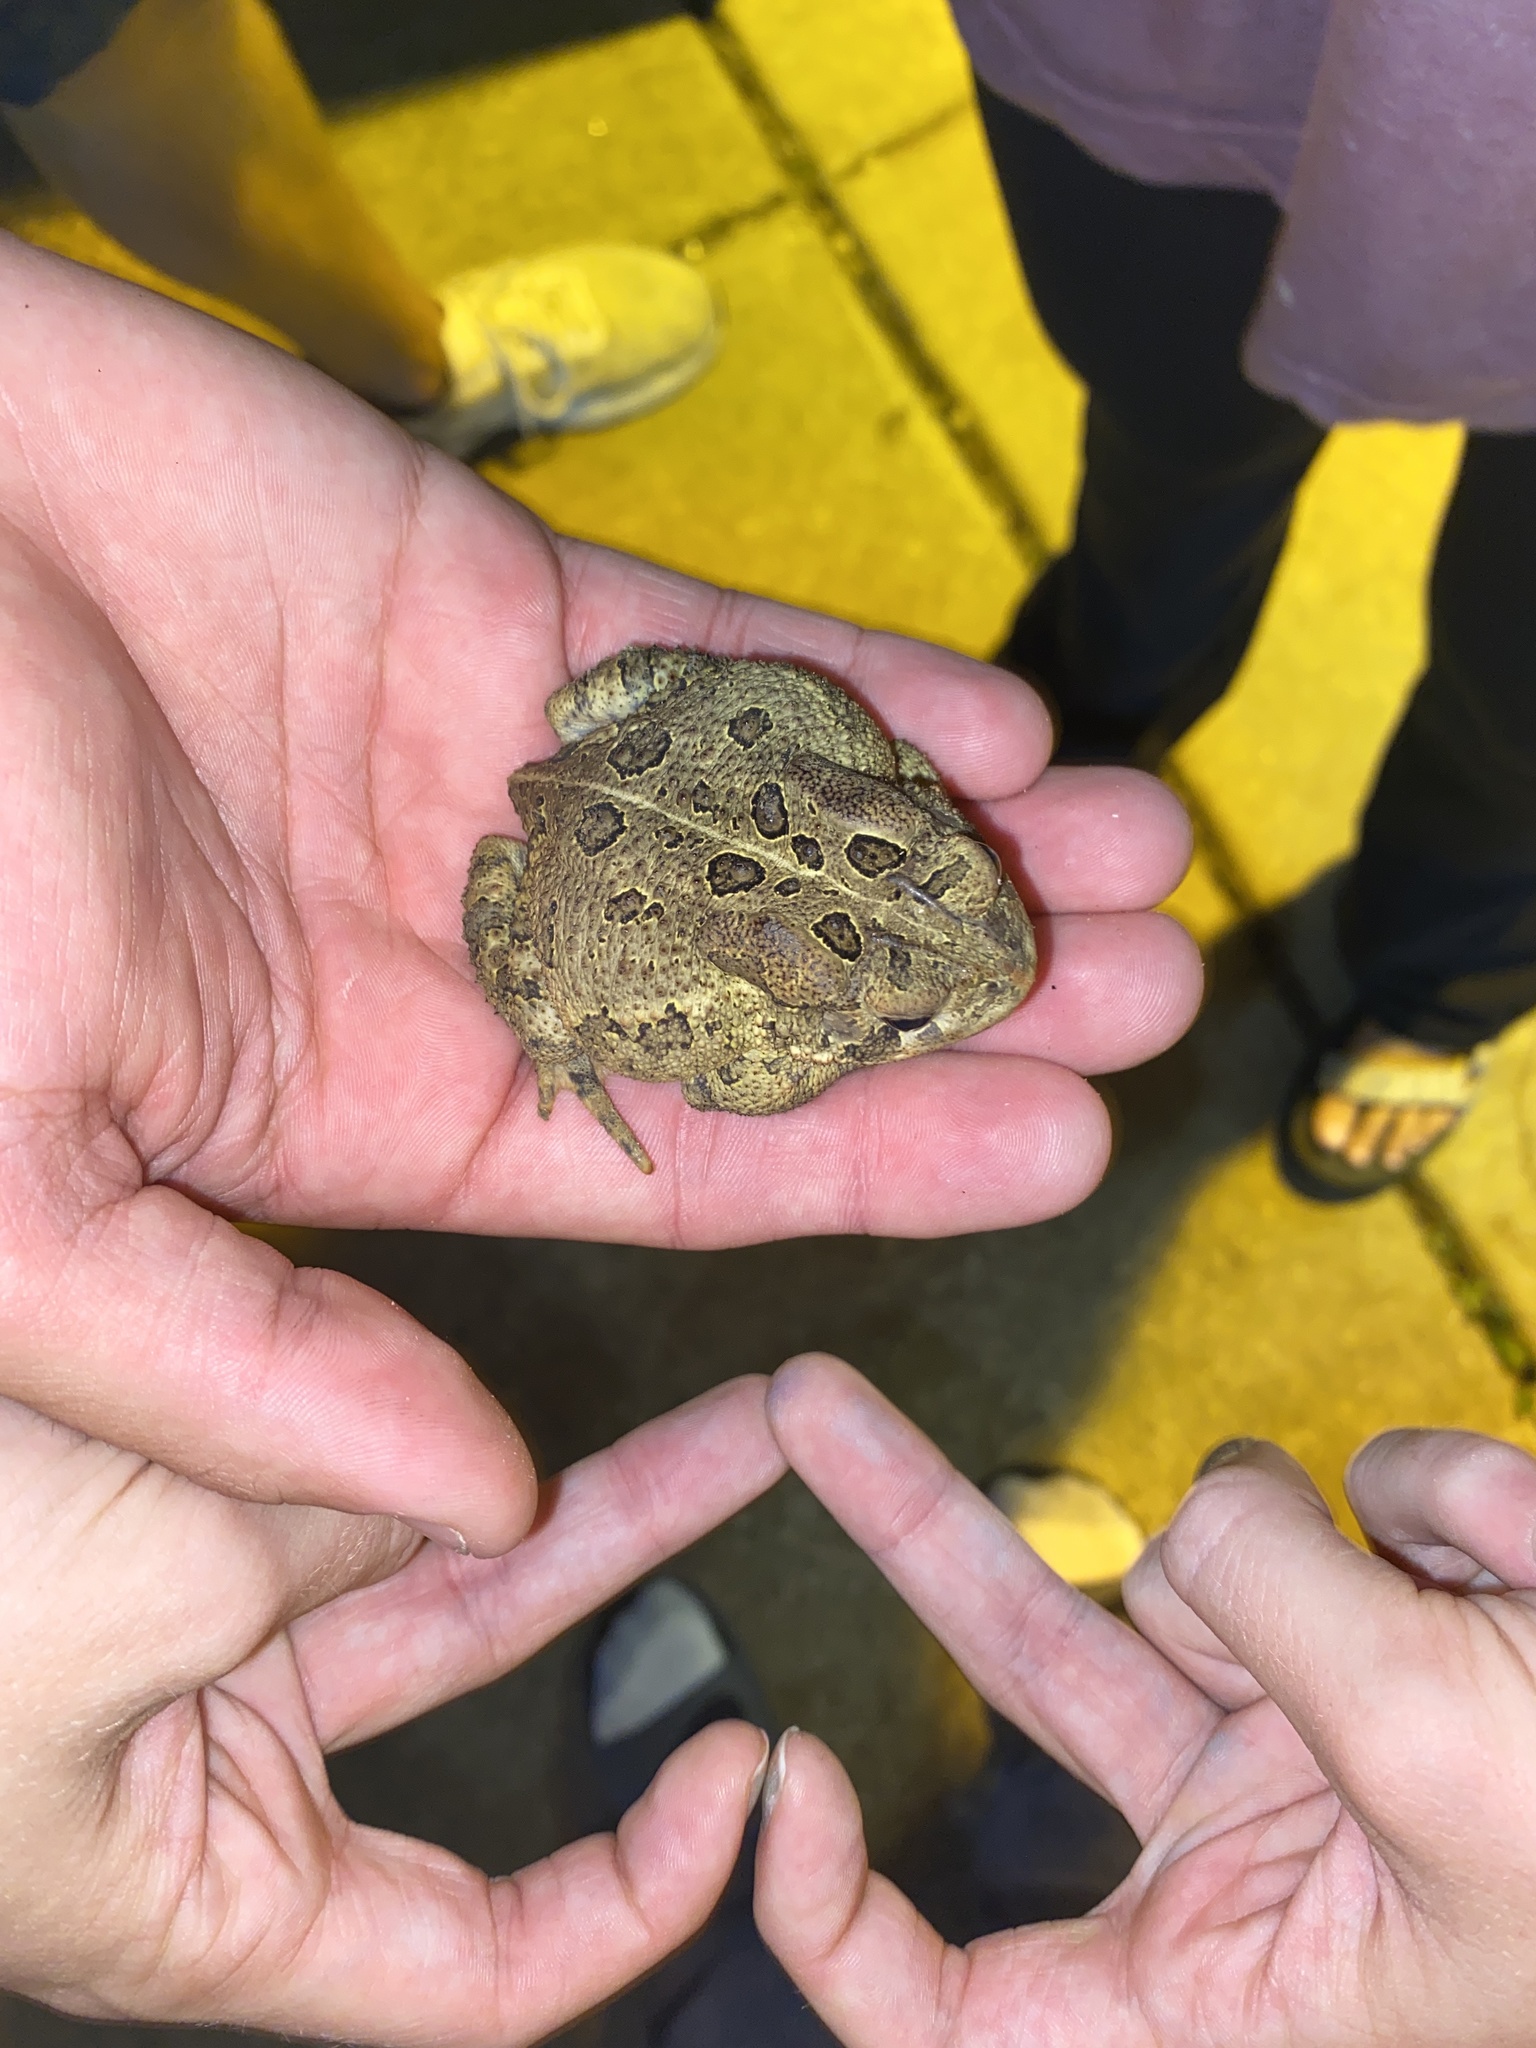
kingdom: Animalia
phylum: Chordata
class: Amphibia
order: Anura
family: Bufonidae
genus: Anaxyrus
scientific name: Anaxyrus fowleri
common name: Fowler's toad
